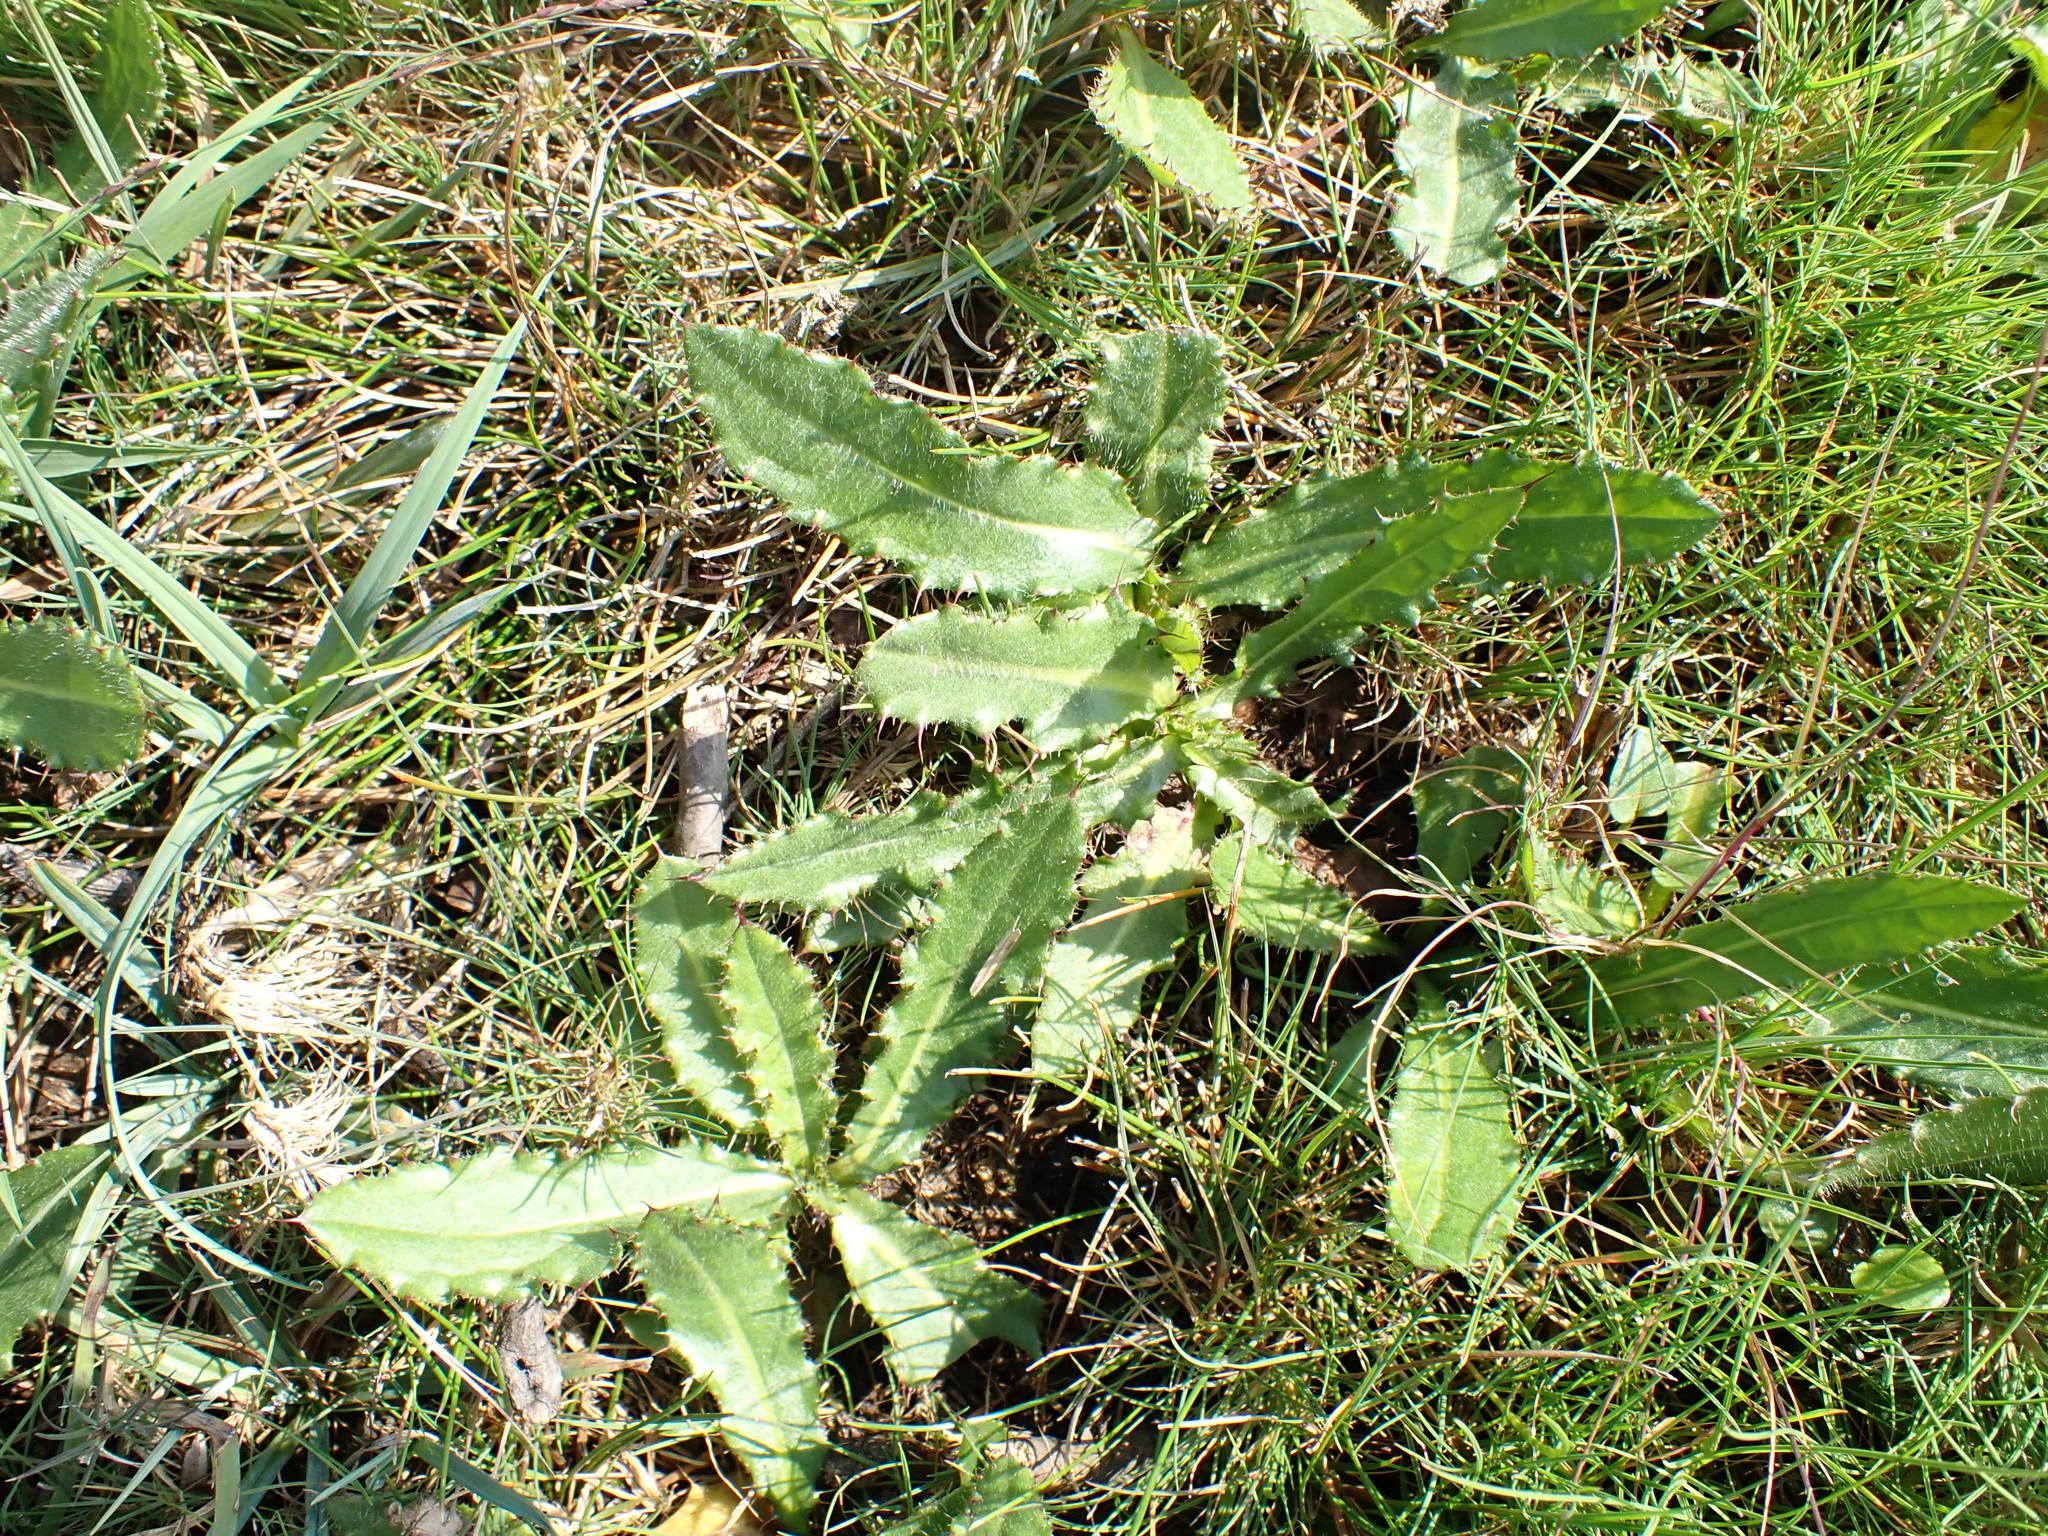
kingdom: Plantae
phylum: Tracheophyta
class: Magnoliopsida
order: Asterales
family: Asteraceae
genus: Cirsium
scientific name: Cirsium dissectum
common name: Meadow thistle
